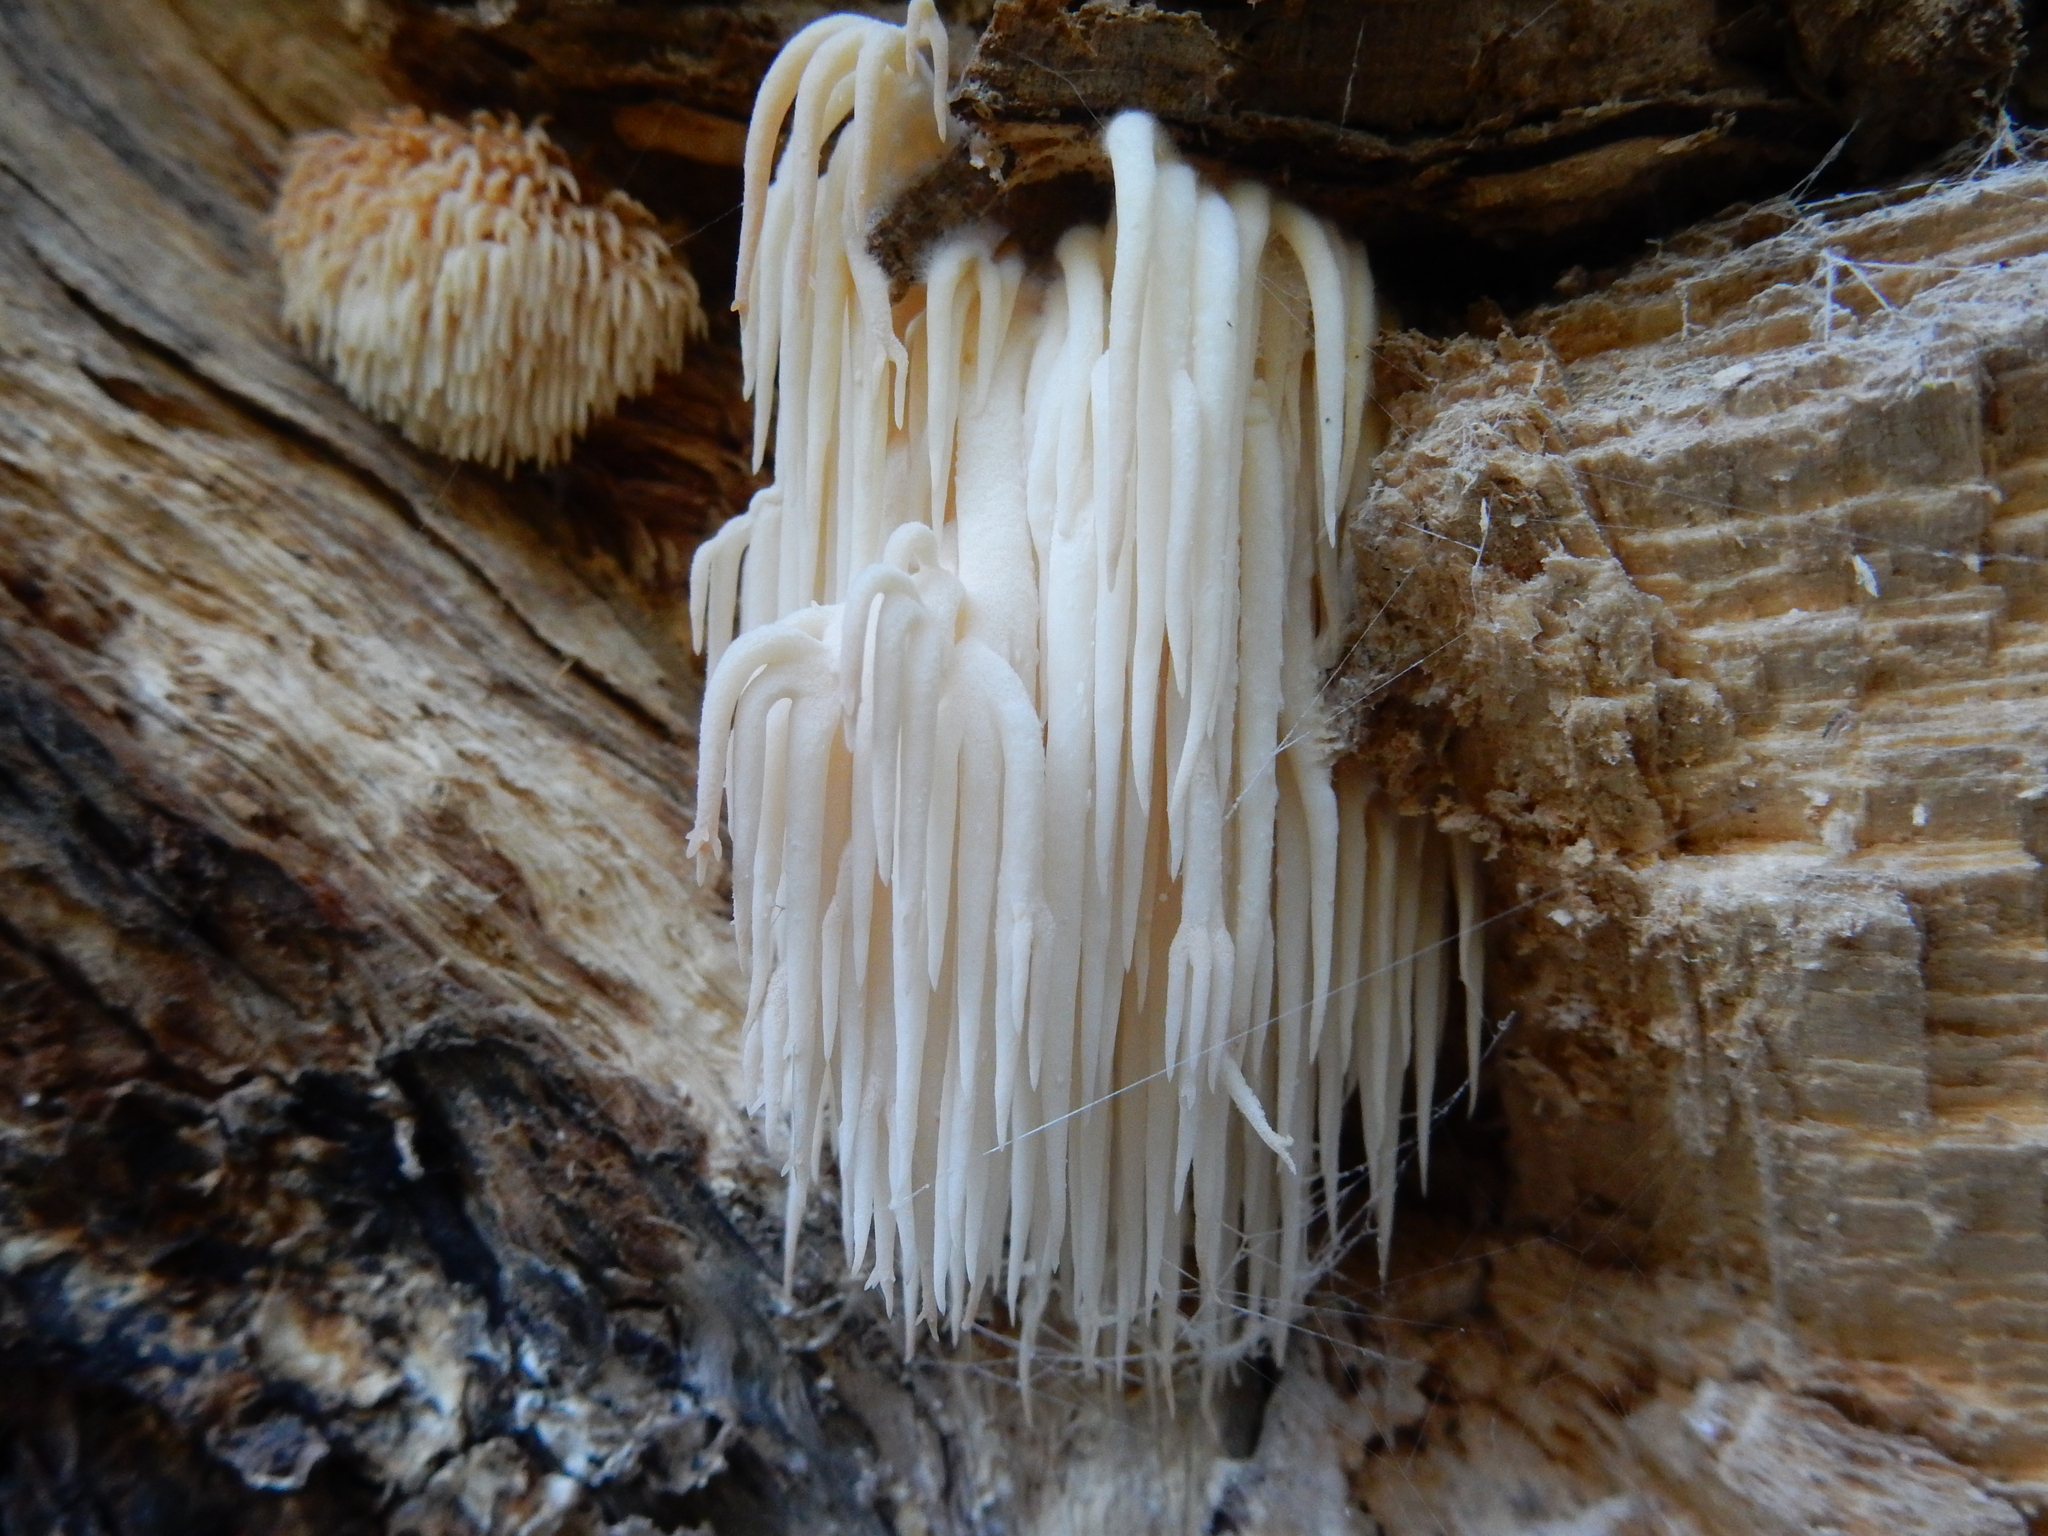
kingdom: Fungi
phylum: Basidiomycota
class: Agaricomycetes
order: Russulales
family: Hericiaceae
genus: Hericium
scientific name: Hericium novae-zealandiae
